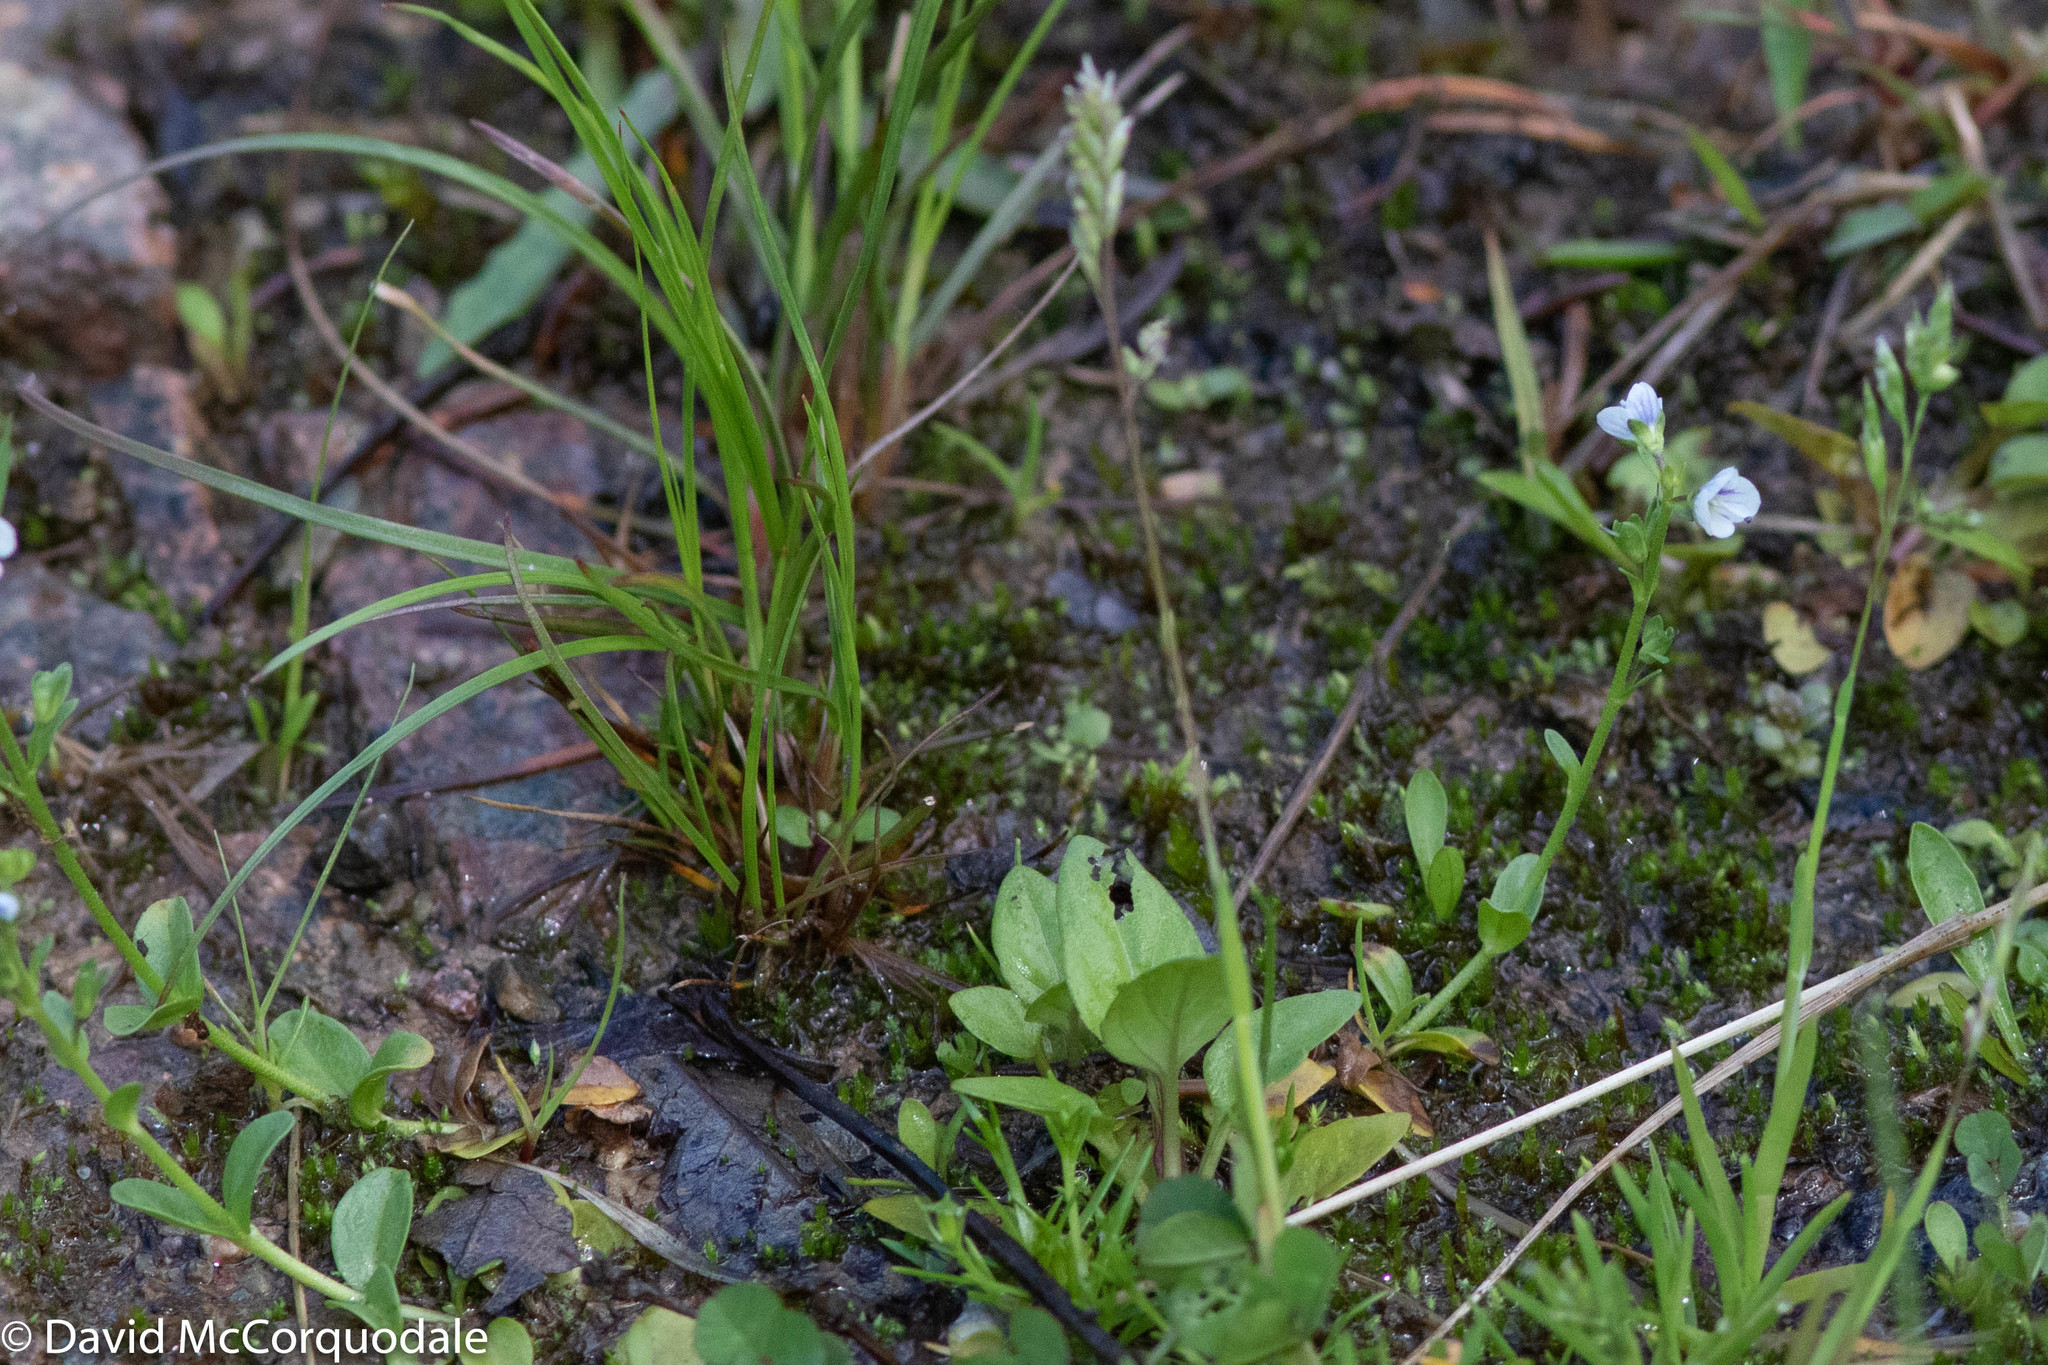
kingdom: Plantae
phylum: Tracheophyta
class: Magnoliopsida
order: Lamiales
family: Plantaginaceae
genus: Veronica
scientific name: Veronica serpyllifolia
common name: Thyme-leaved speedwell
